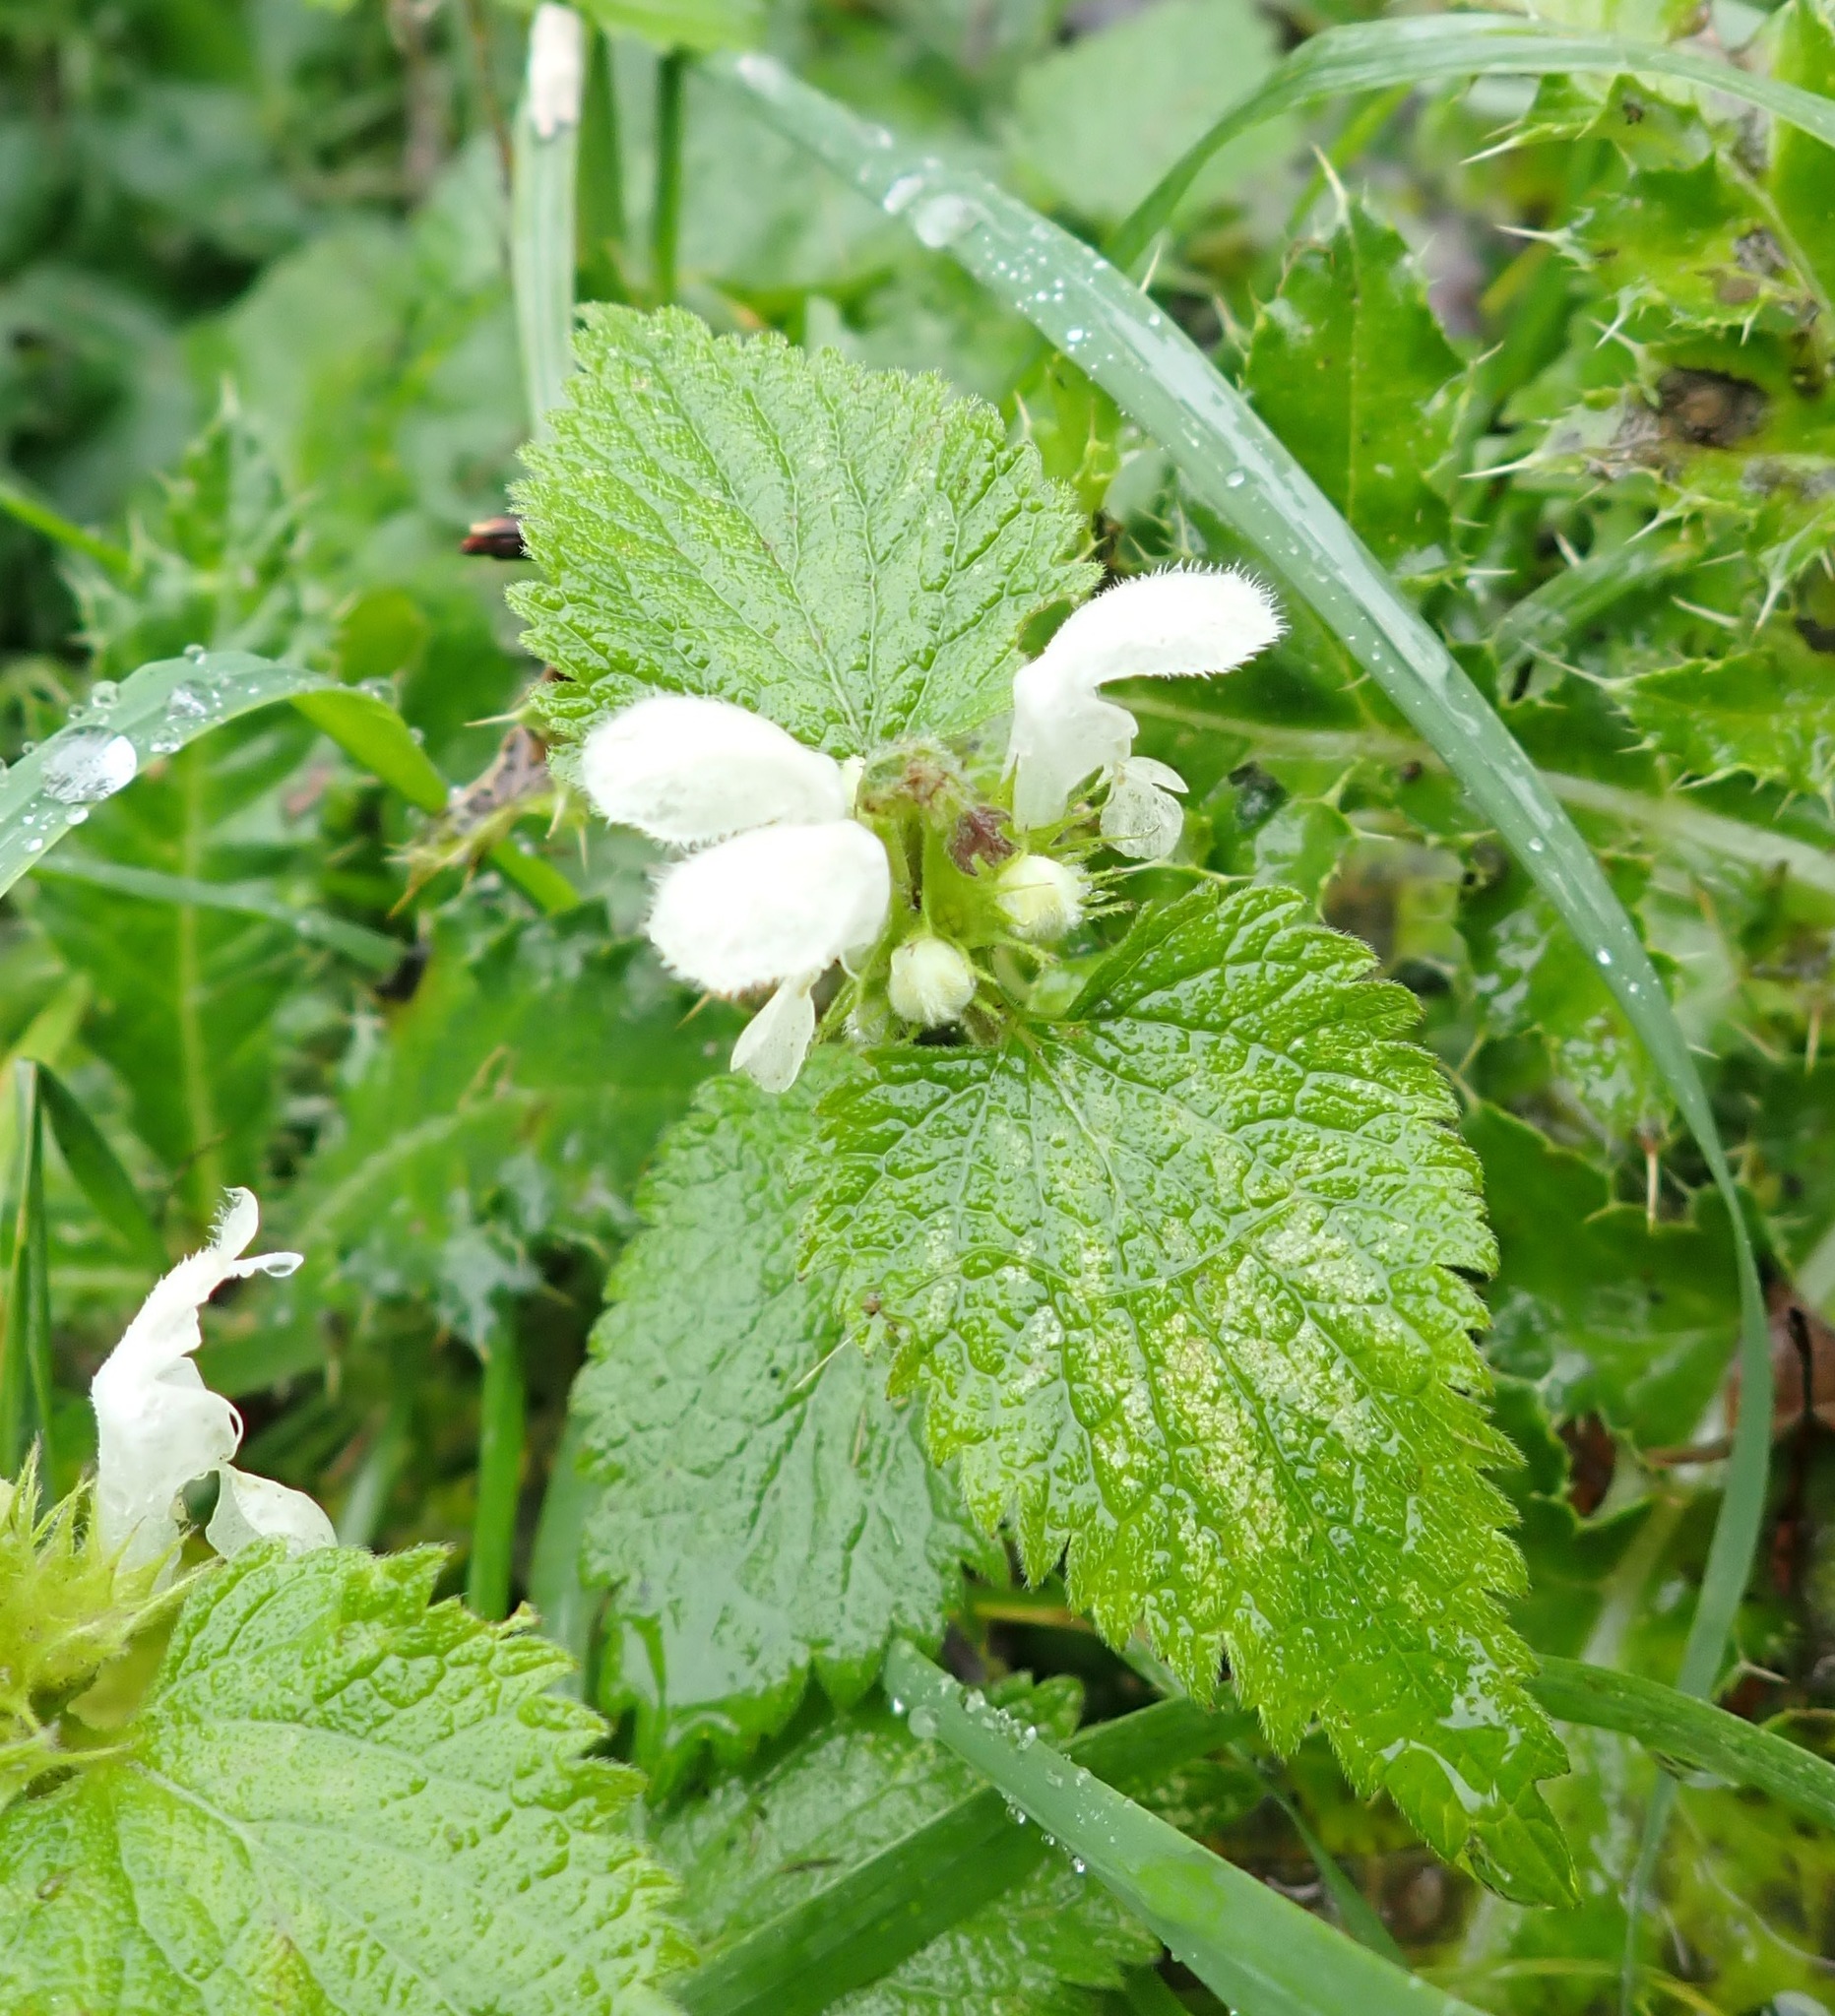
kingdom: Plantae
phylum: Tracheophyta
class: Magnoliopsida
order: Lamiales
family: Lamiaceae
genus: Lamium
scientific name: Lamium album
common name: White dead-nettle
